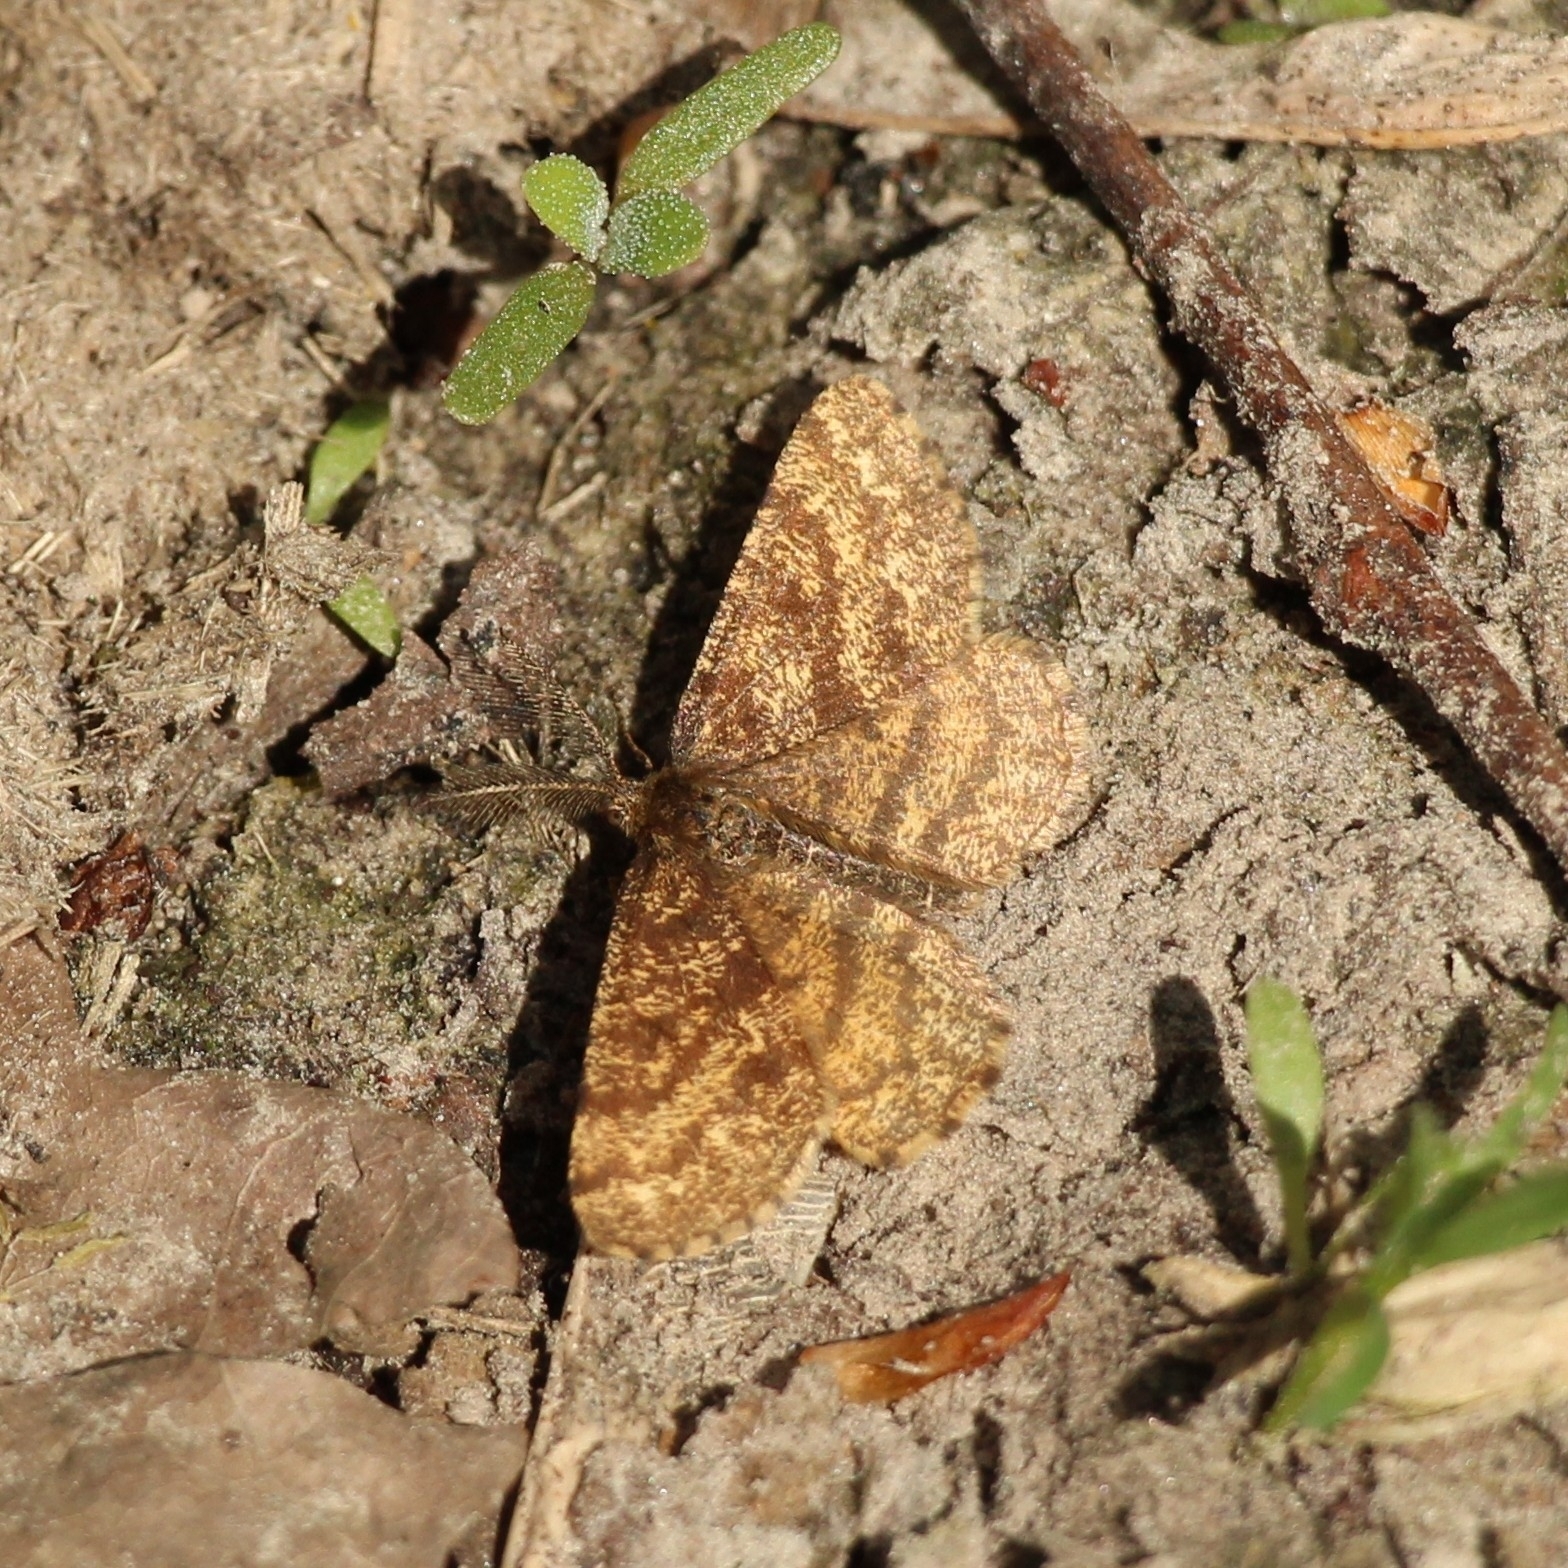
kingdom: Animalia
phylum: Arthropoda
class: Insecta
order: Lepidoptera
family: Geometridae
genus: Ematurga
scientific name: Ematurga atomaria
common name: Common heath
